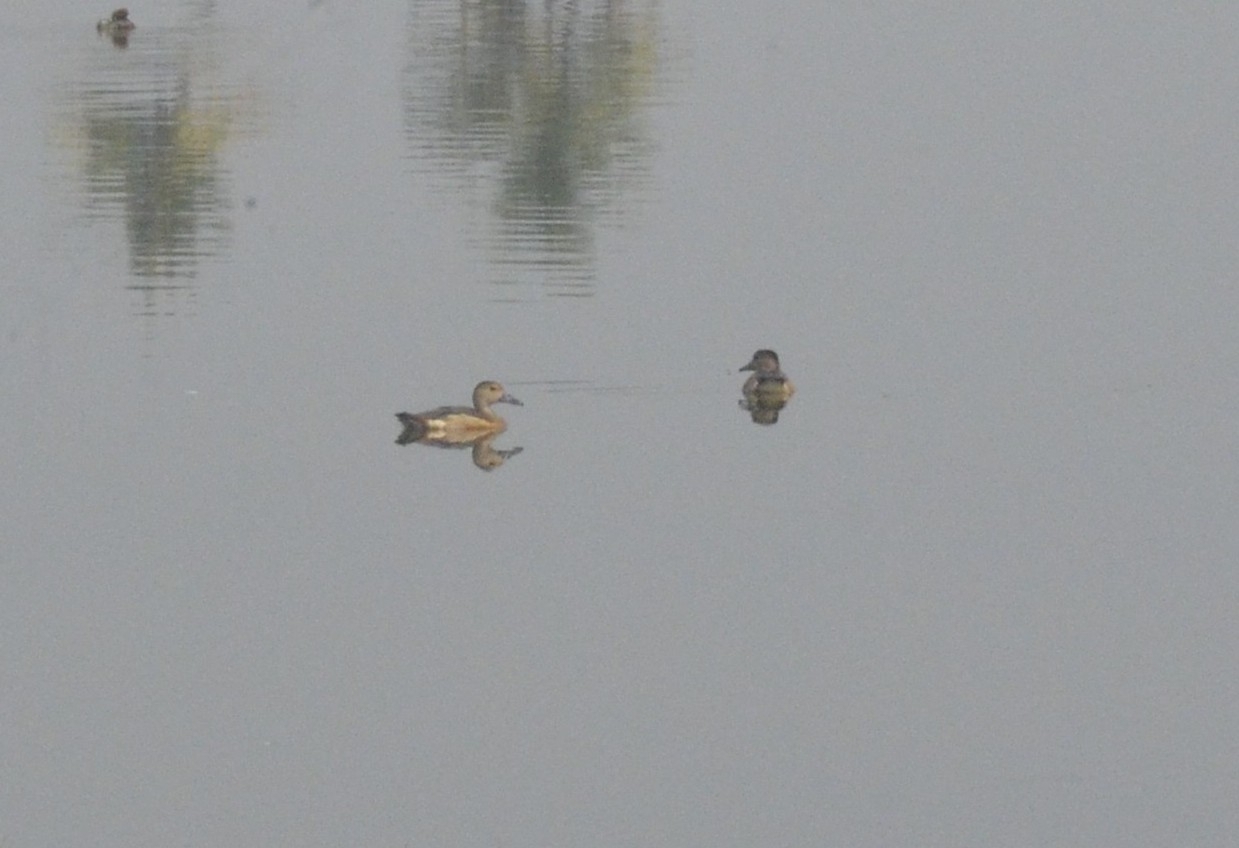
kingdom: Animalia
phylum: Chordata
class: Aves
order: Anseriformes
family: Anatidae
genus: Dendrocygna
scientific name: Dendrocygna javanica
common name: Lesser whistling-duck
